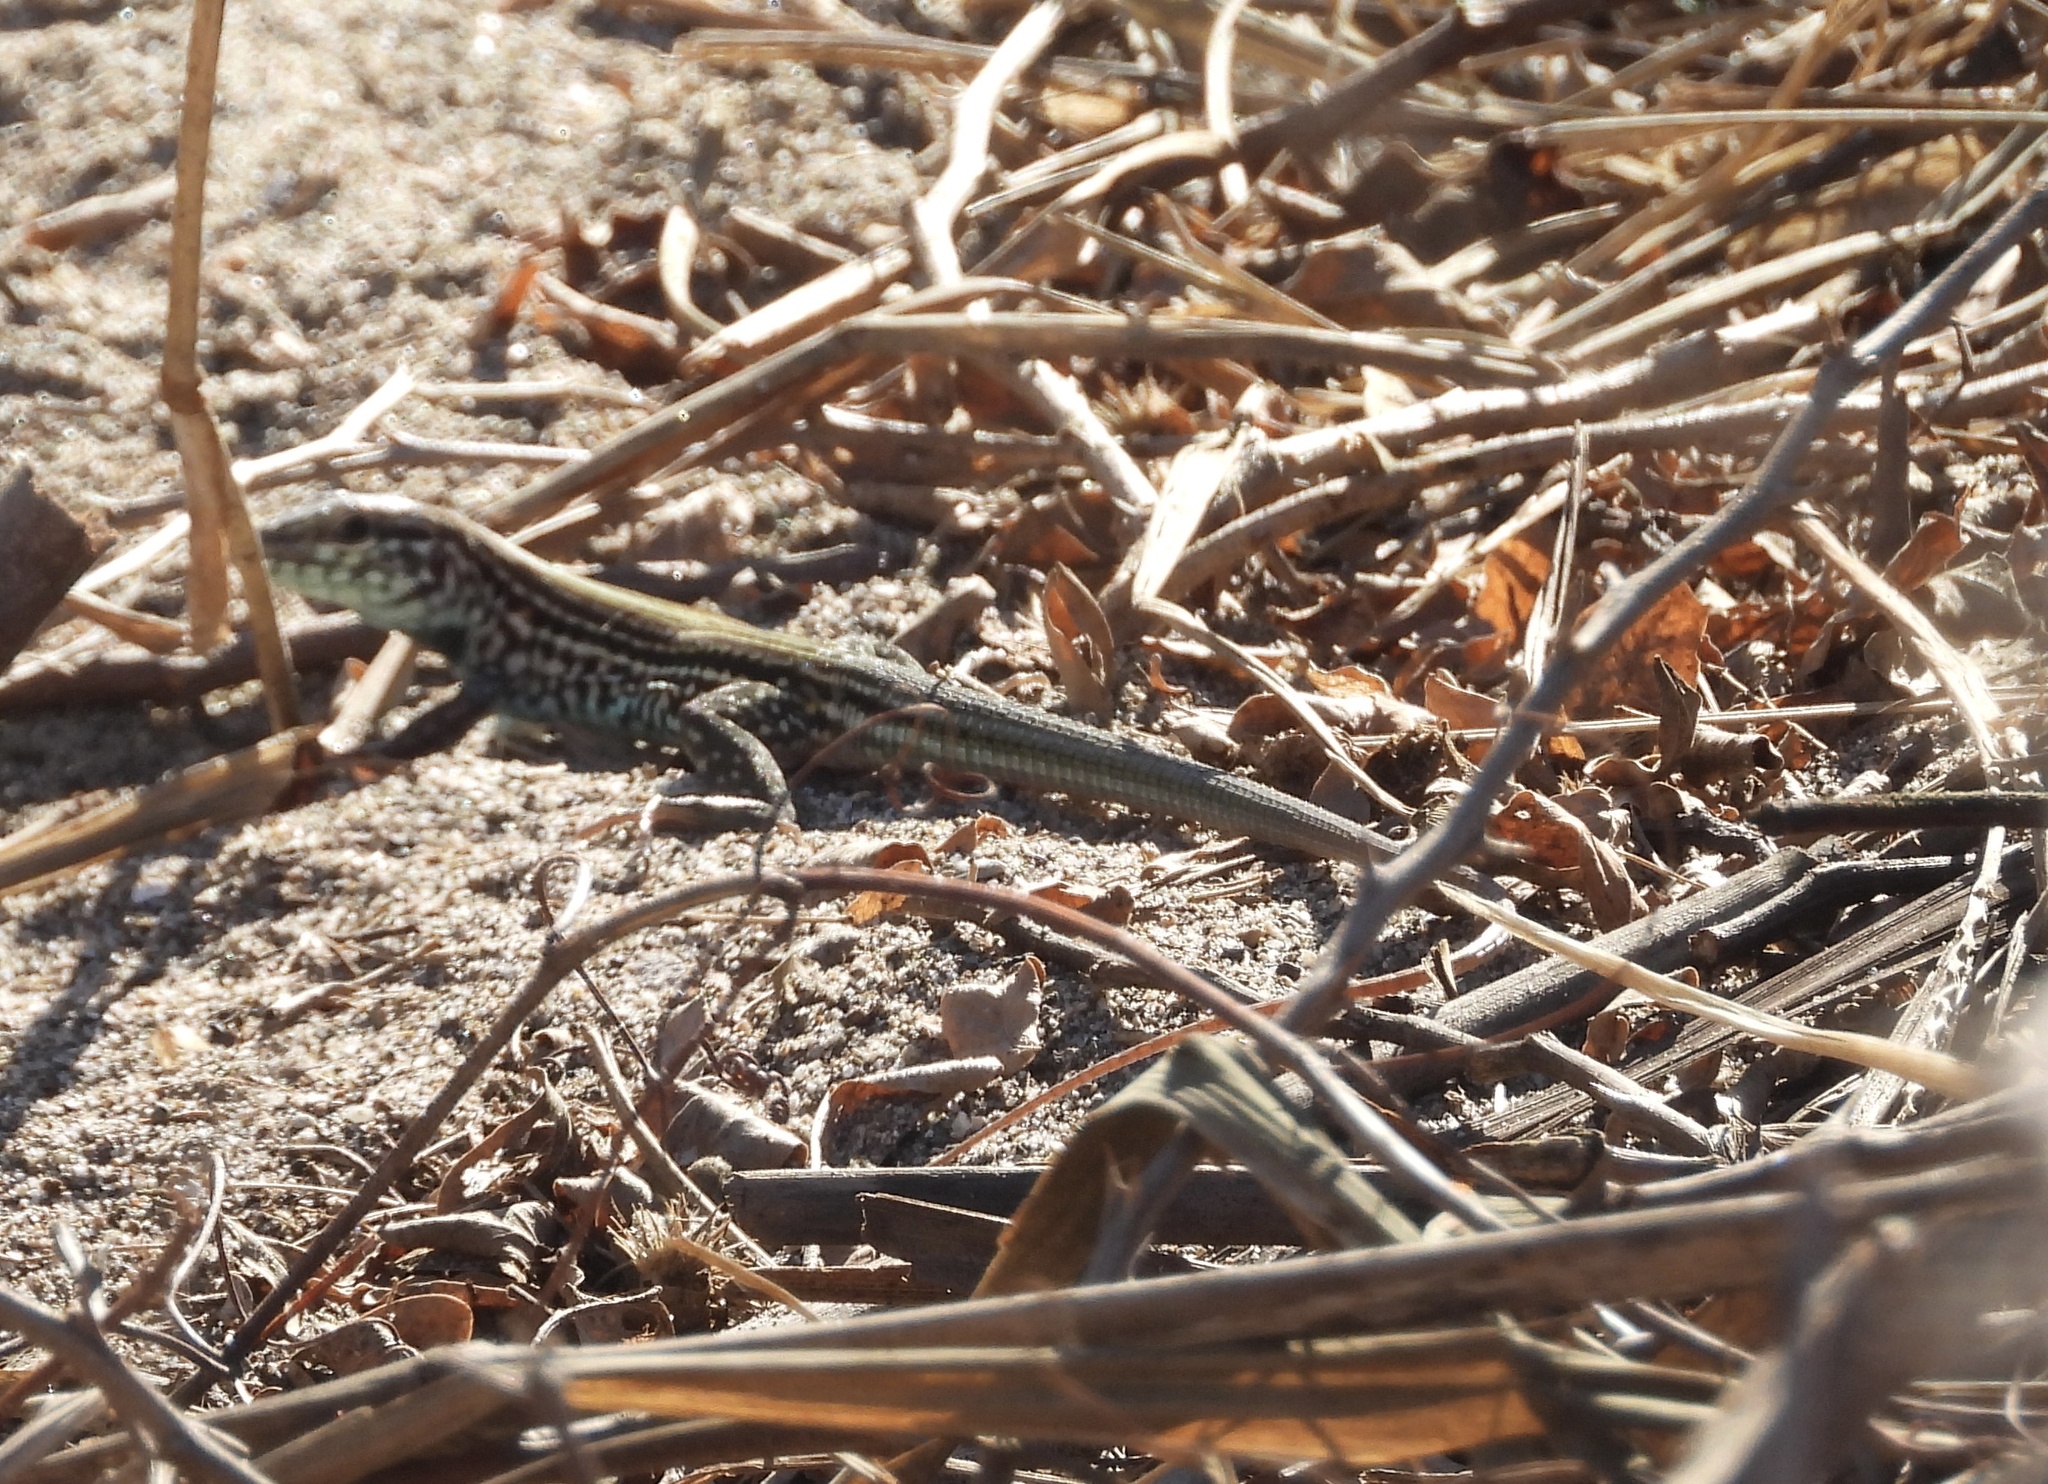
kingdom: Animalia
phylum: Chordata
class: Squamata
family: Teiidae
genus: Aspidoscelis
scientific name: Aspidoscelis lineattissimus
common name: Many-lined whiptail
